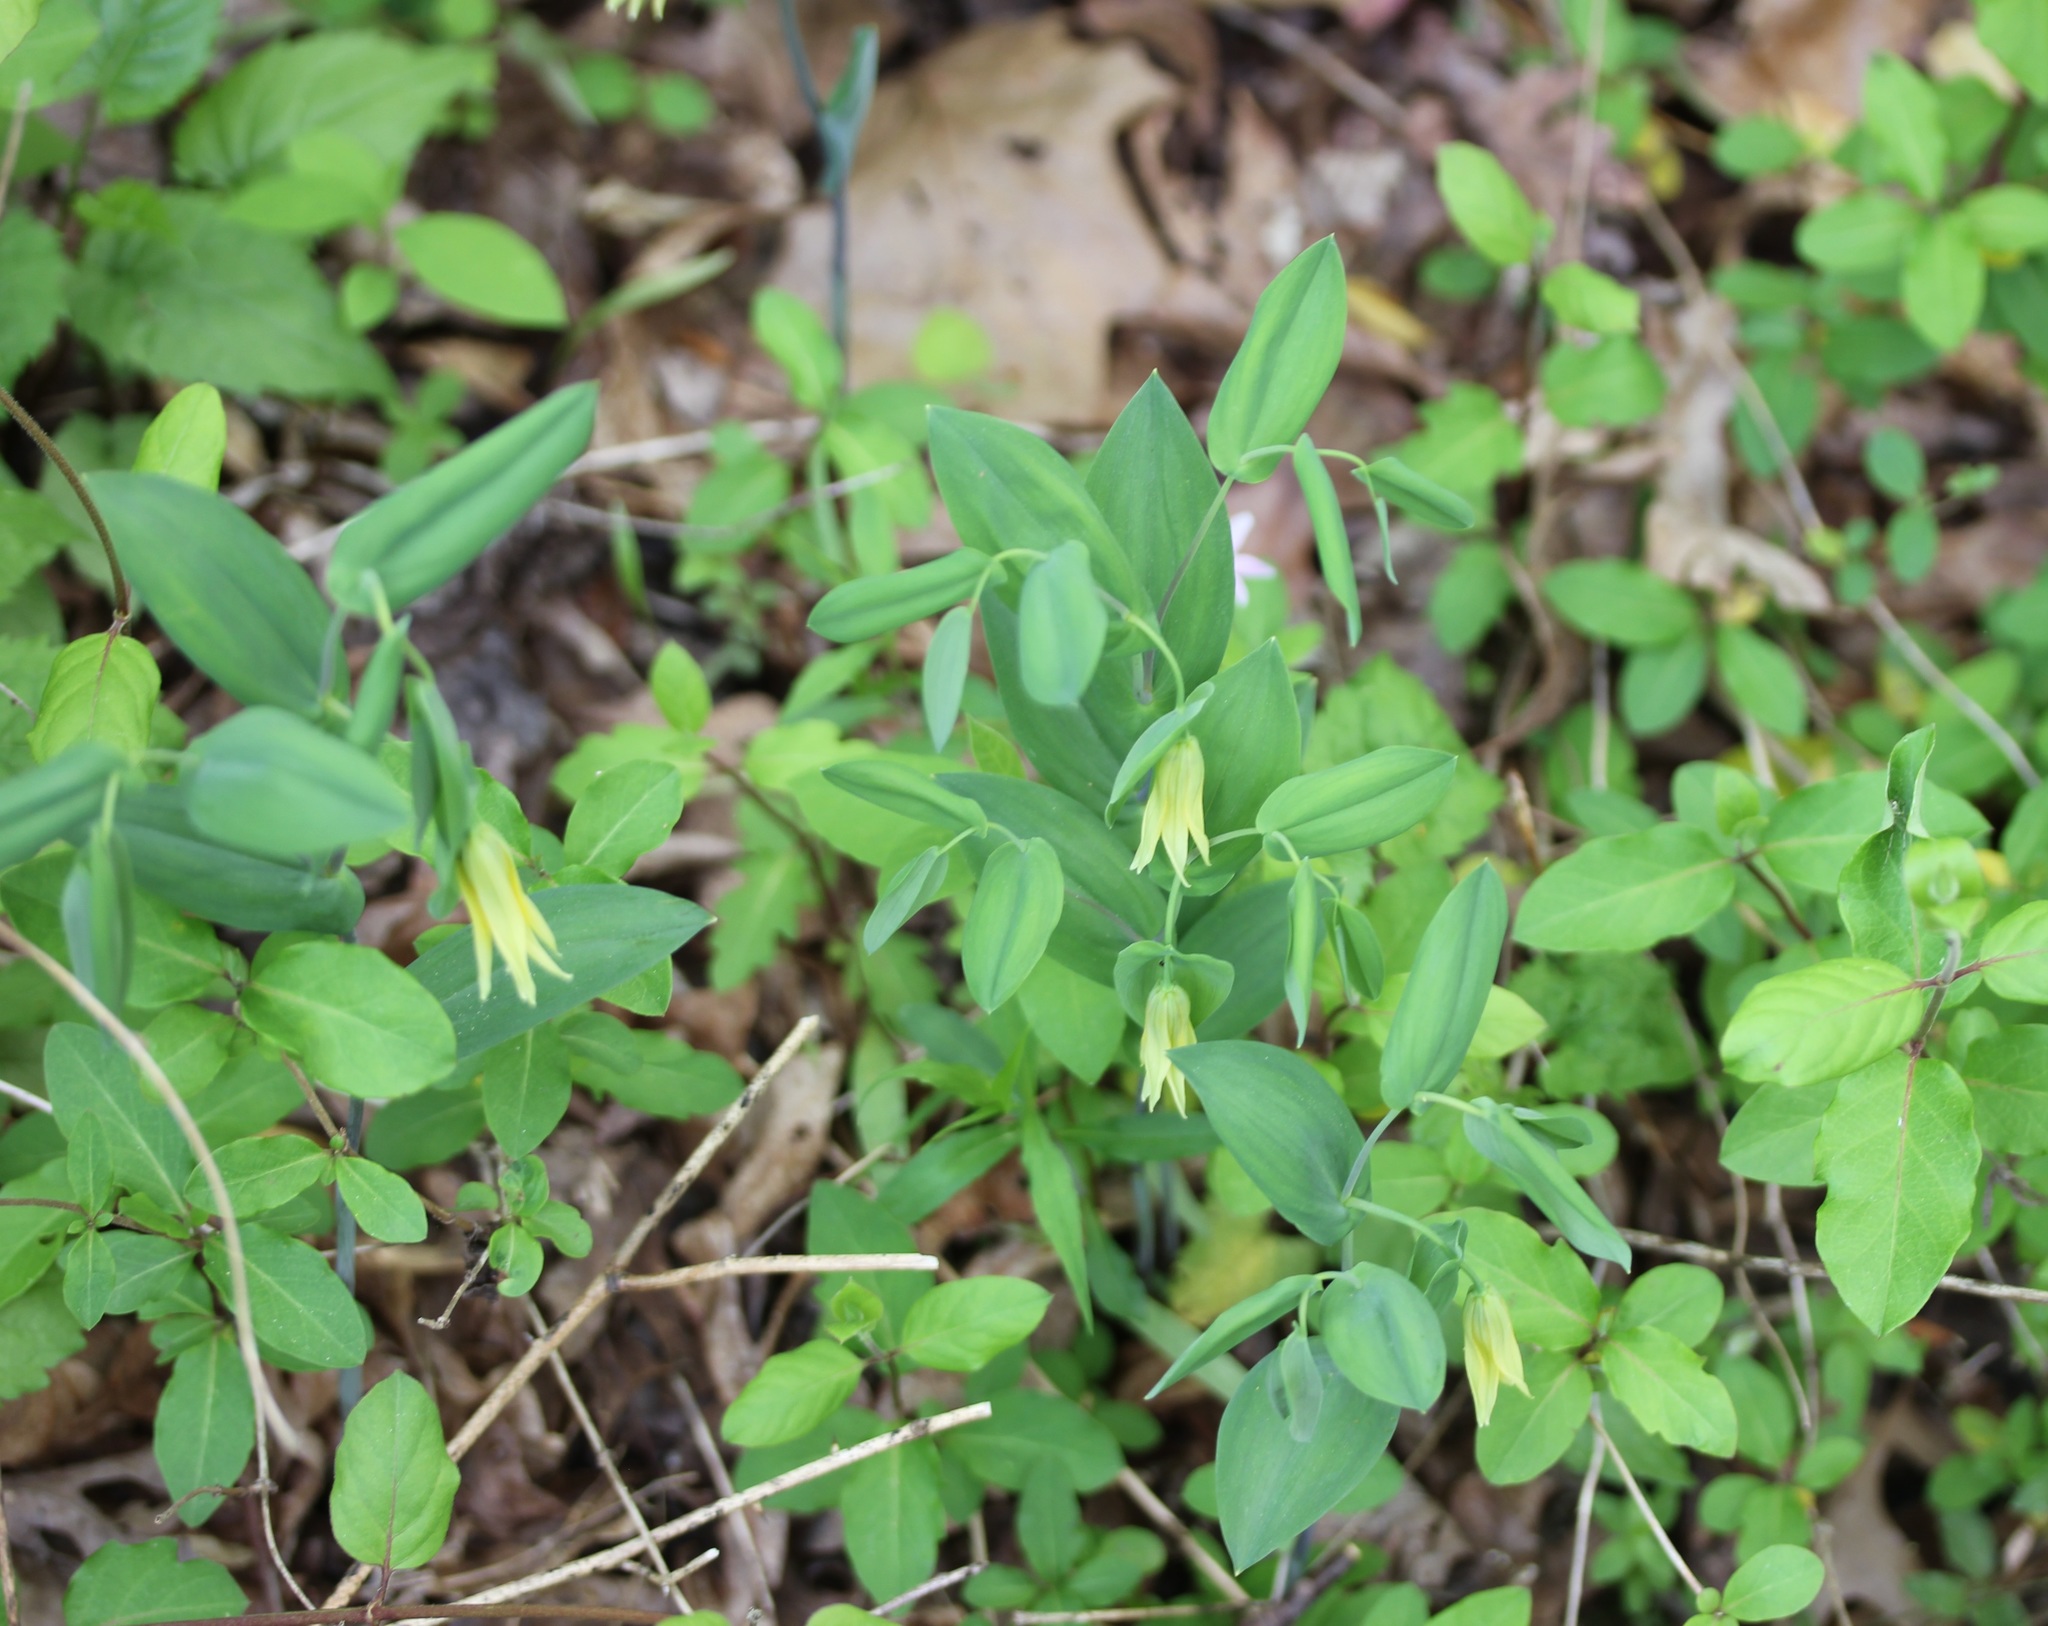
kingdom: Plantae
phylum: Tracheophyta
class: Liliopsida
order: Liliales
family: Colchicaceae
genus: Uvularia
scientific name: Uvularia perfoliata
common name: Perfoliate bellwort
